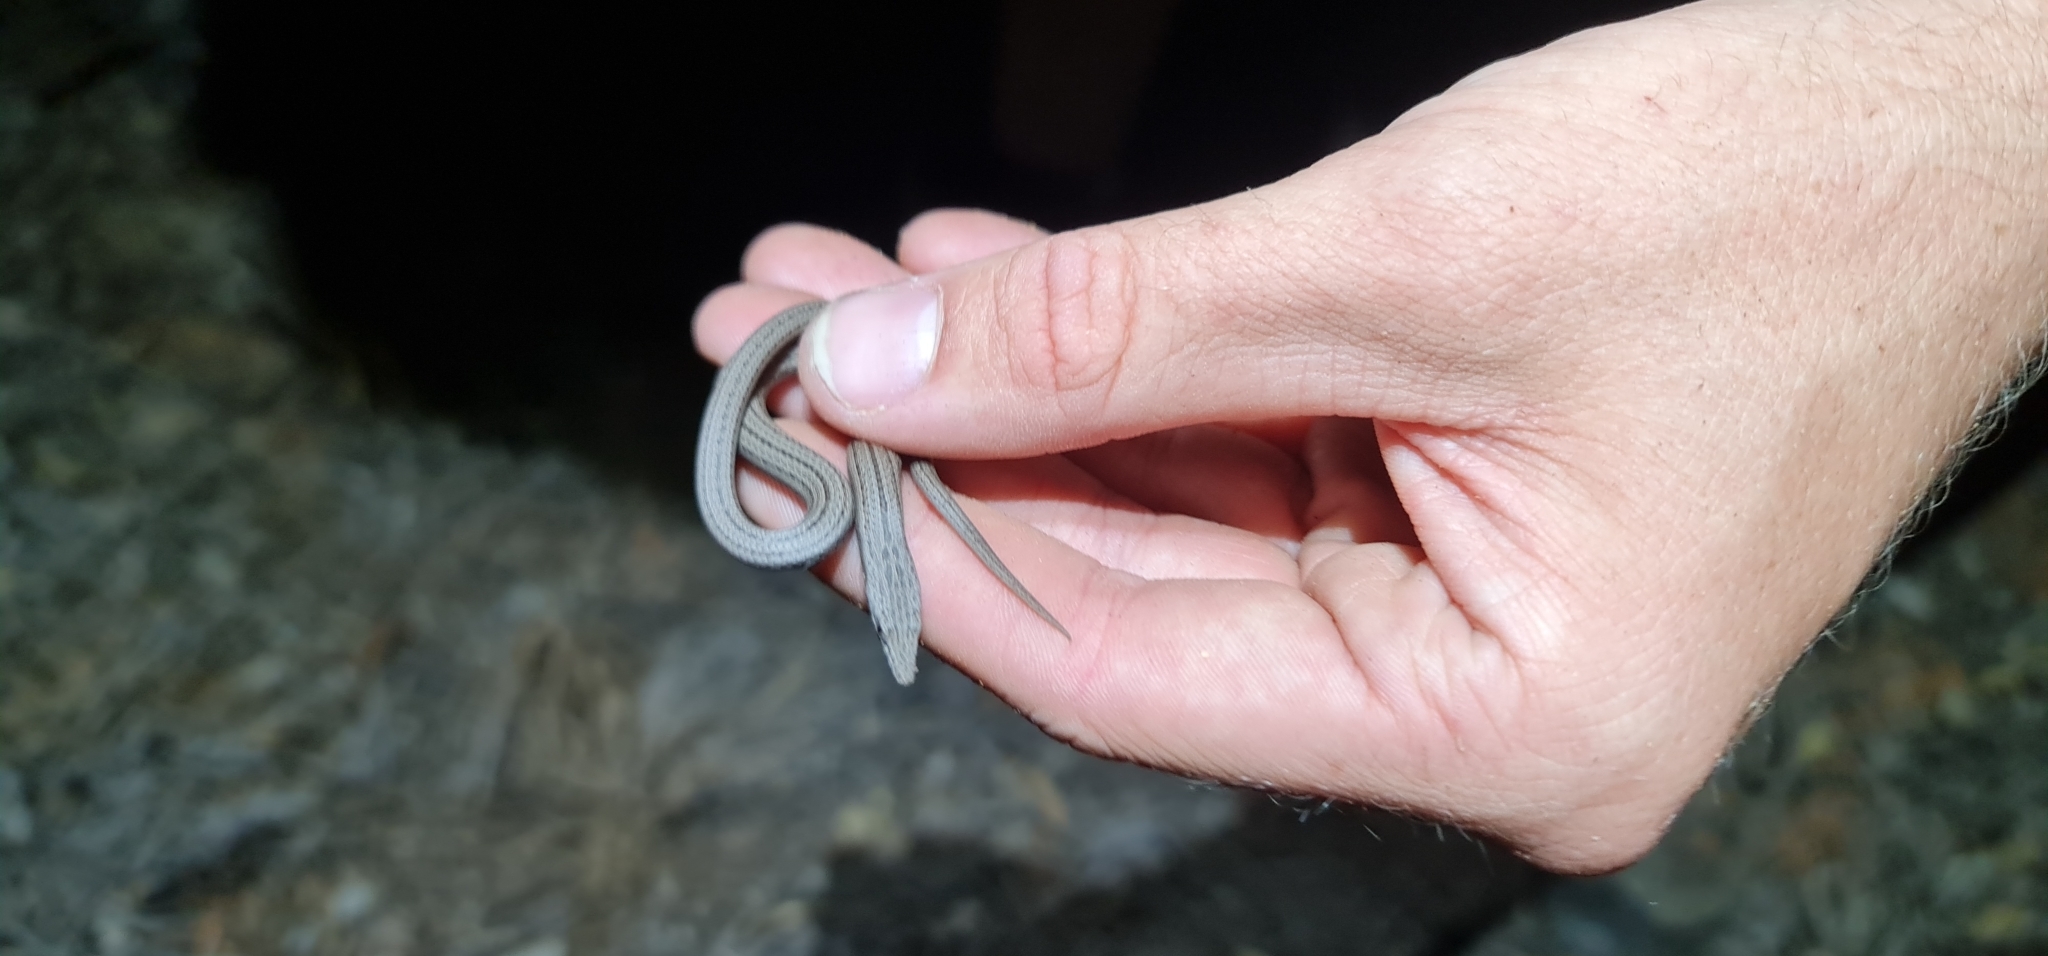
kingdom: Animalia
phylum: Chordata
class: Squamata
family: Pygopodidae
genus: Lialis
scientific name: Lialis burtonis
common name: Burton's legless lizard
